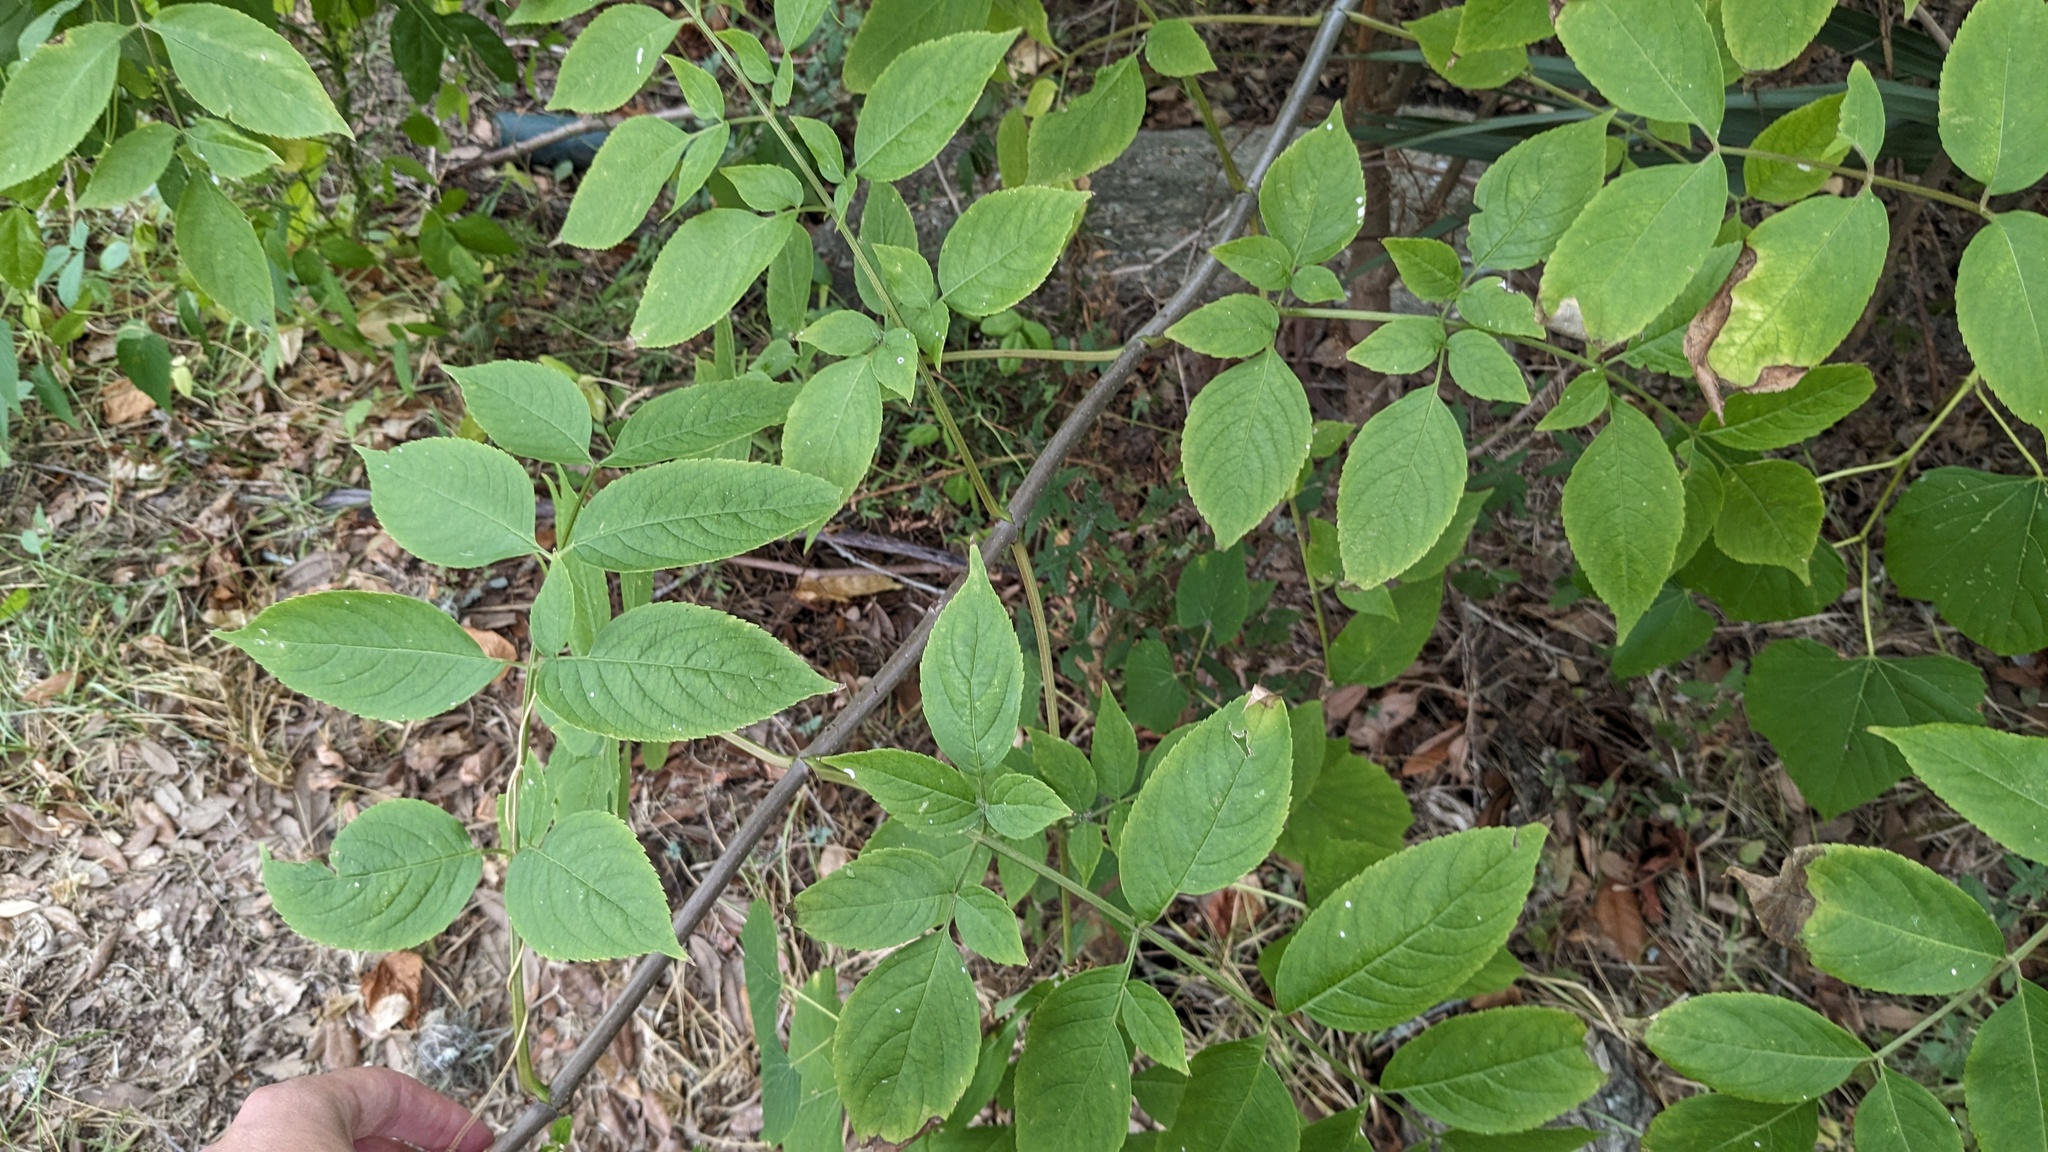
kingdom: Plantae
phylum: Tracheophyta
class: Magnoliopsida
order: Dipsacales
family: Viburnaceae
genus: Sambucus
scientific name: Sambucus canadensis
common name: American elder
